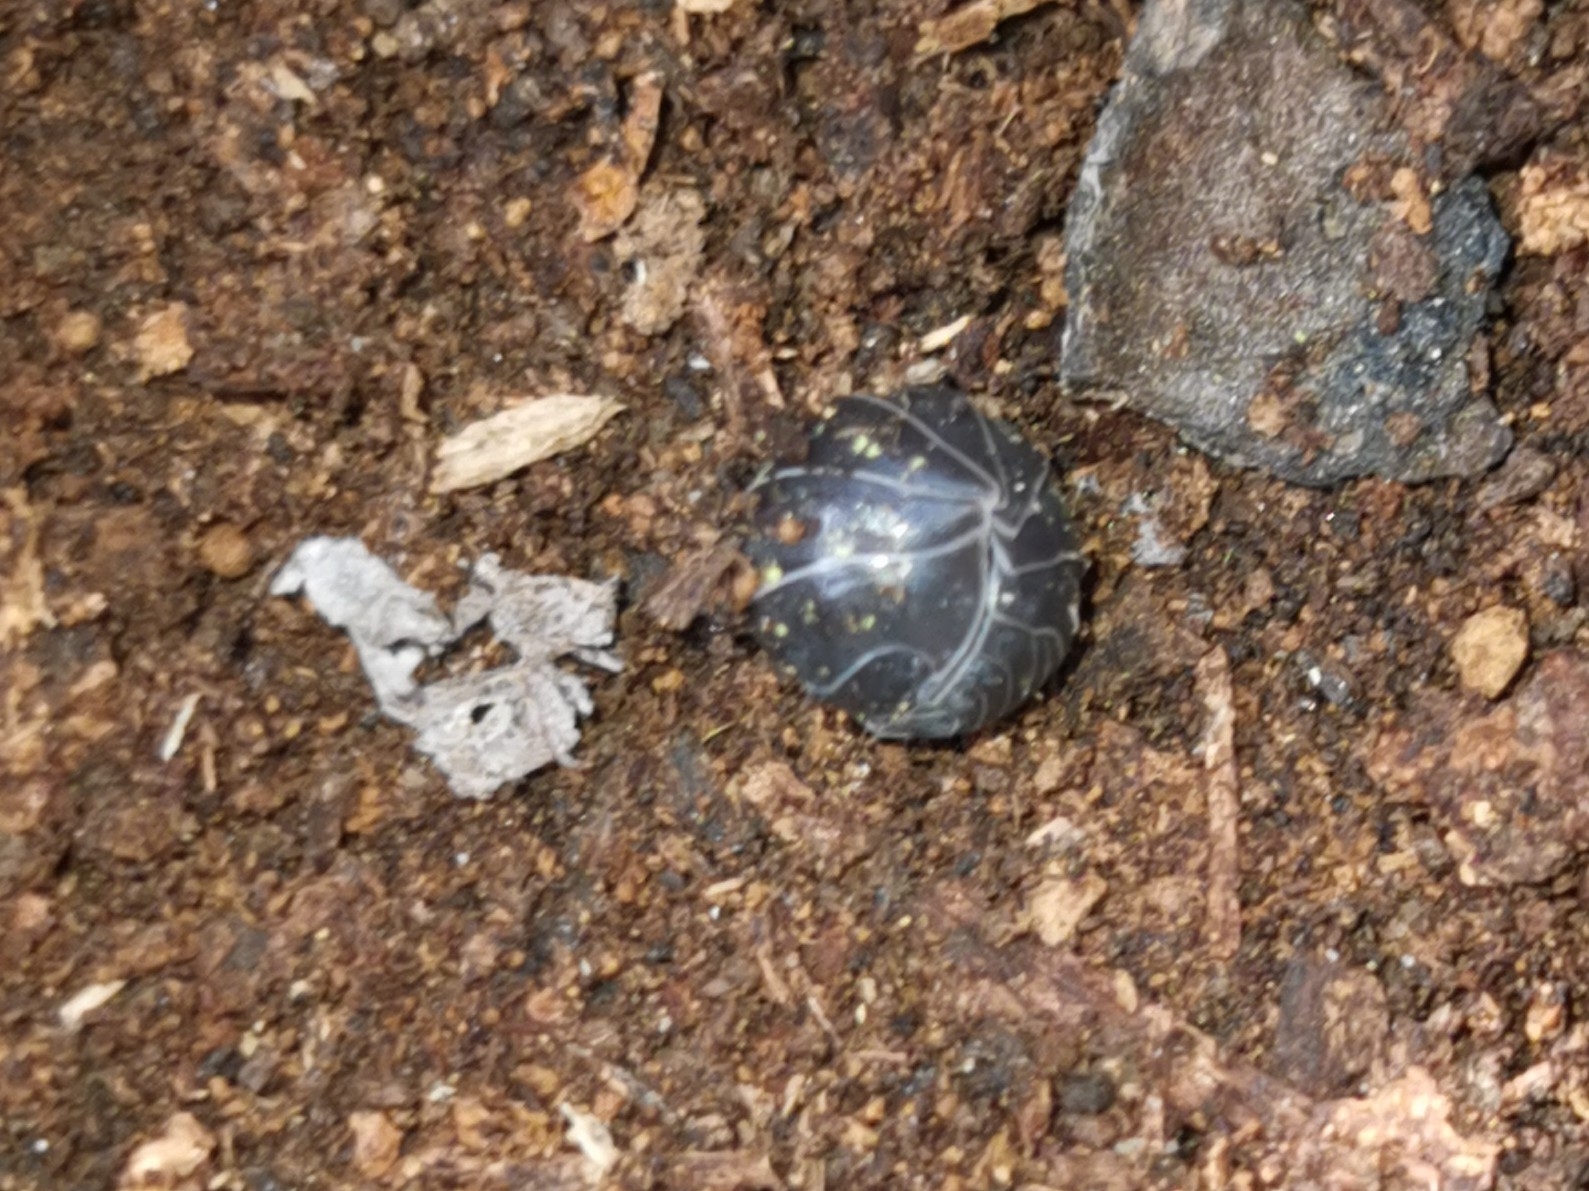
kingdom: Animalia
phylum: Arthropoda
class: Malacostraca
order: Isopoda
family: Armadillidiidae
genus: Armadillidium
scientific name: Armadillidium vulgare
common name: Common pill woodlouse
